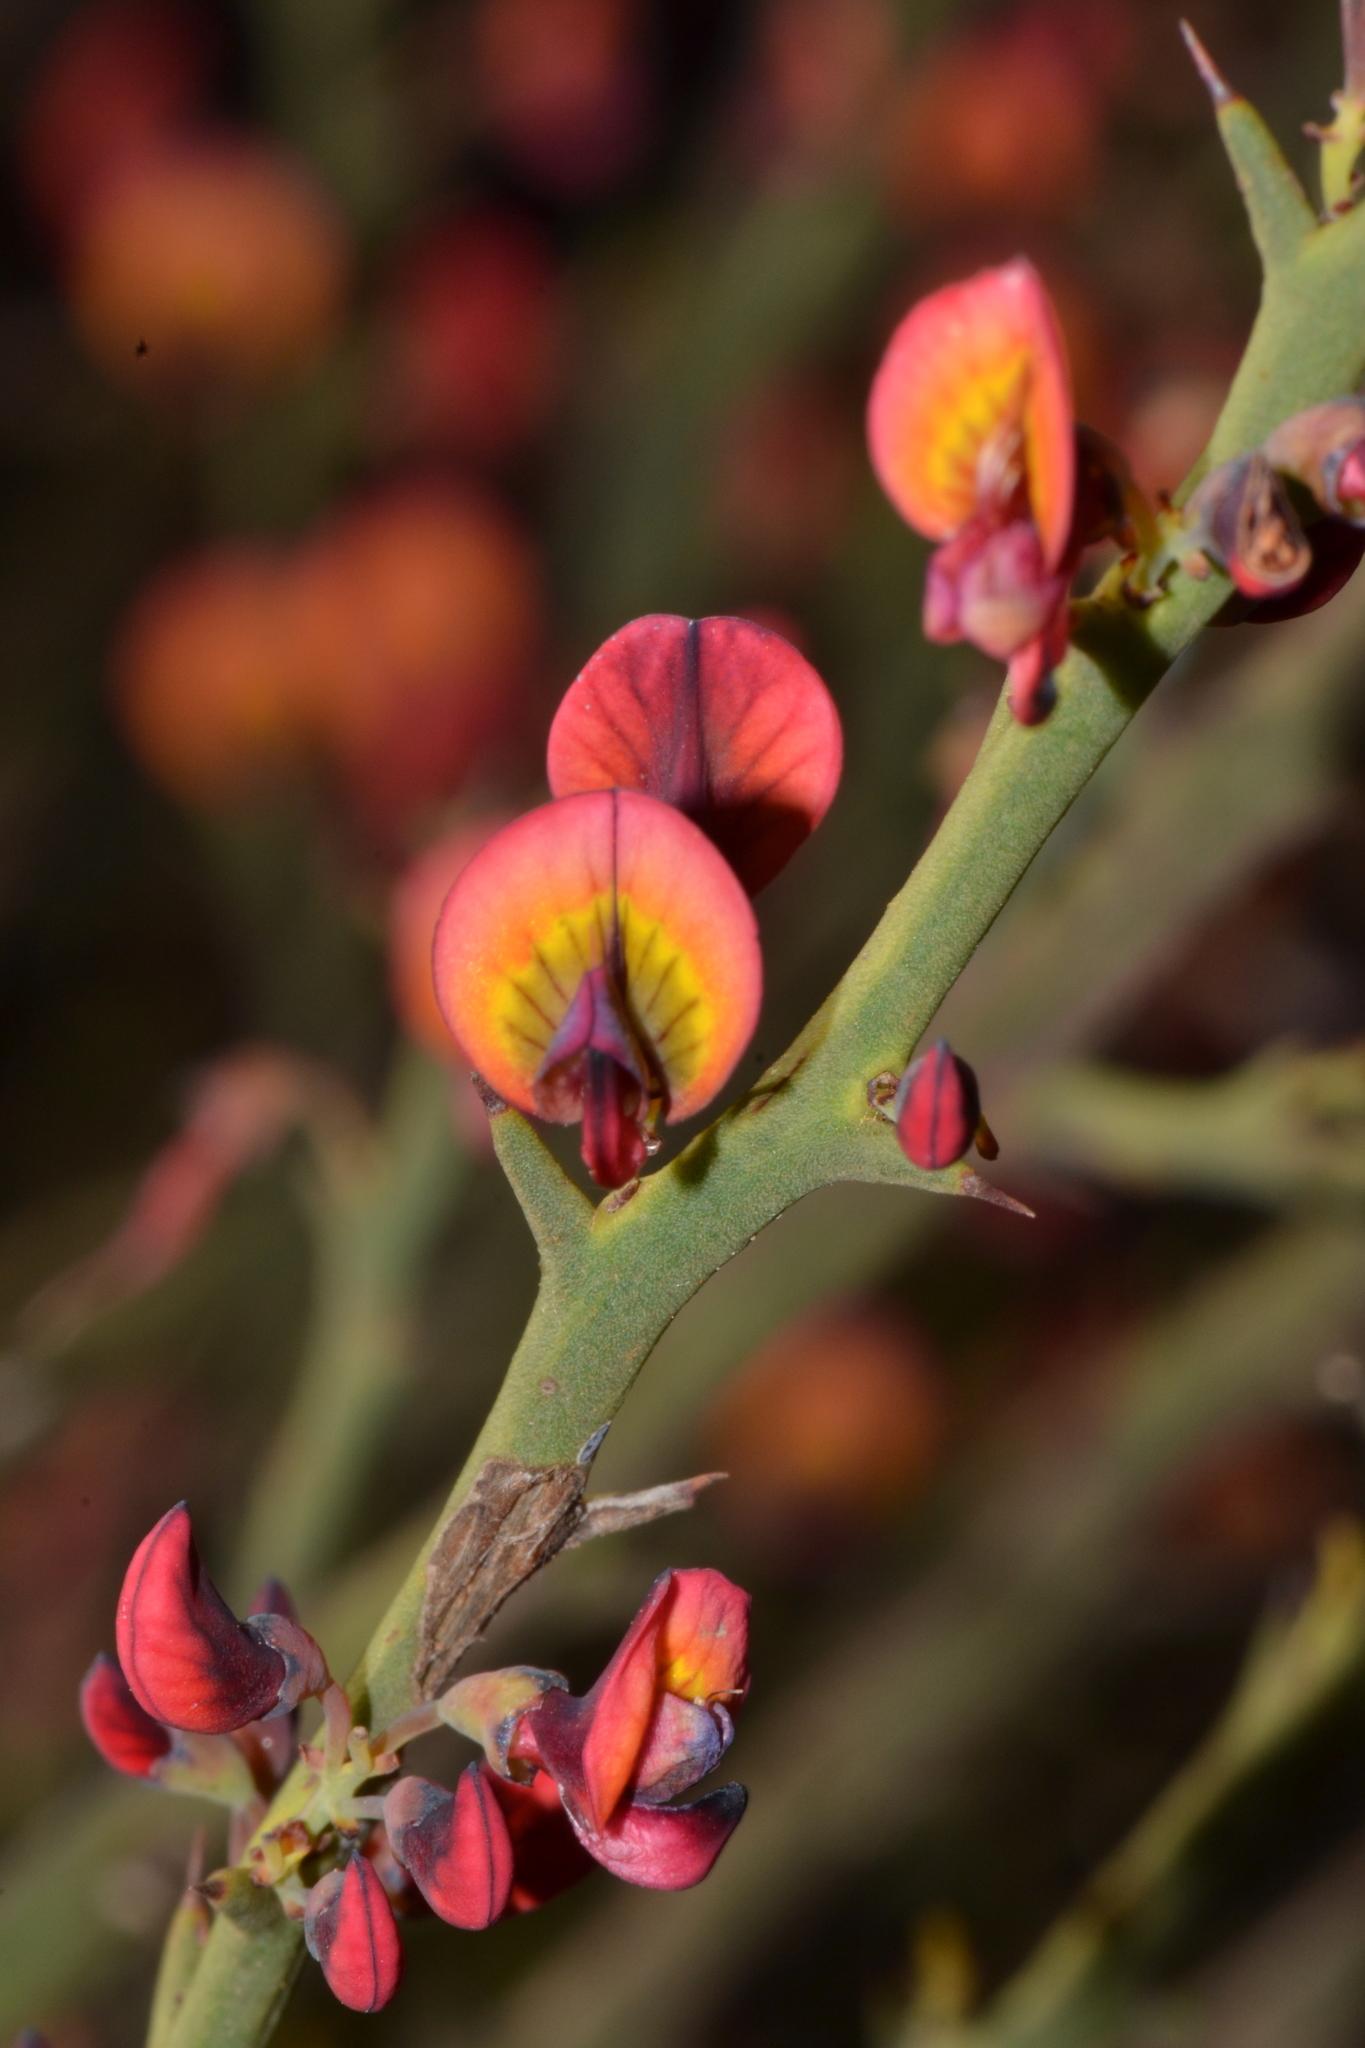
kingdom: Plantae
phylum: Tracheophyta
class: Magnoliopsida
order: Fabales
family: Fabaceae
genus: Daviesia
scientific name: Daviesia incrassata
